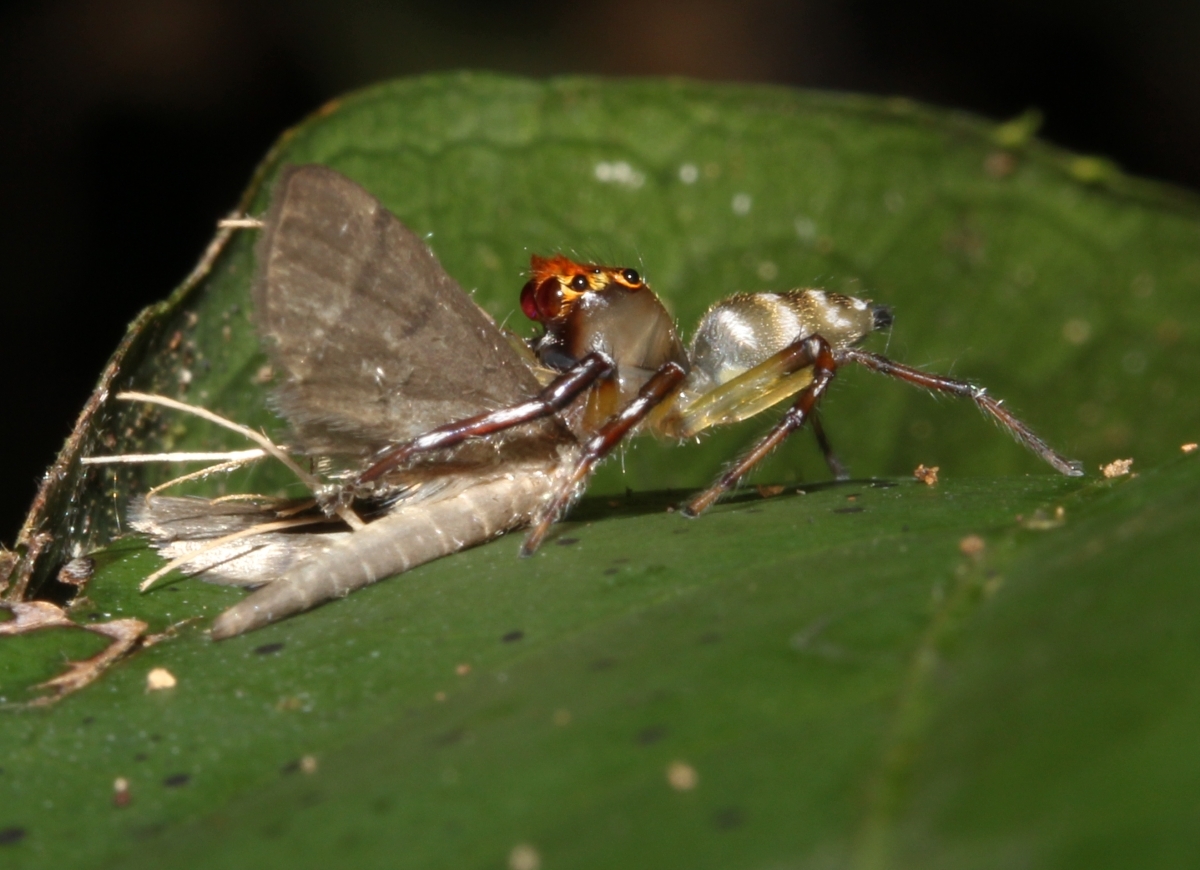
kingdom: Animalia
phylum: Arthropoda
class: Arachnida
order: Araneae
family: Salticidae
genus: Hypaeus
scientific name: Hypaeus
